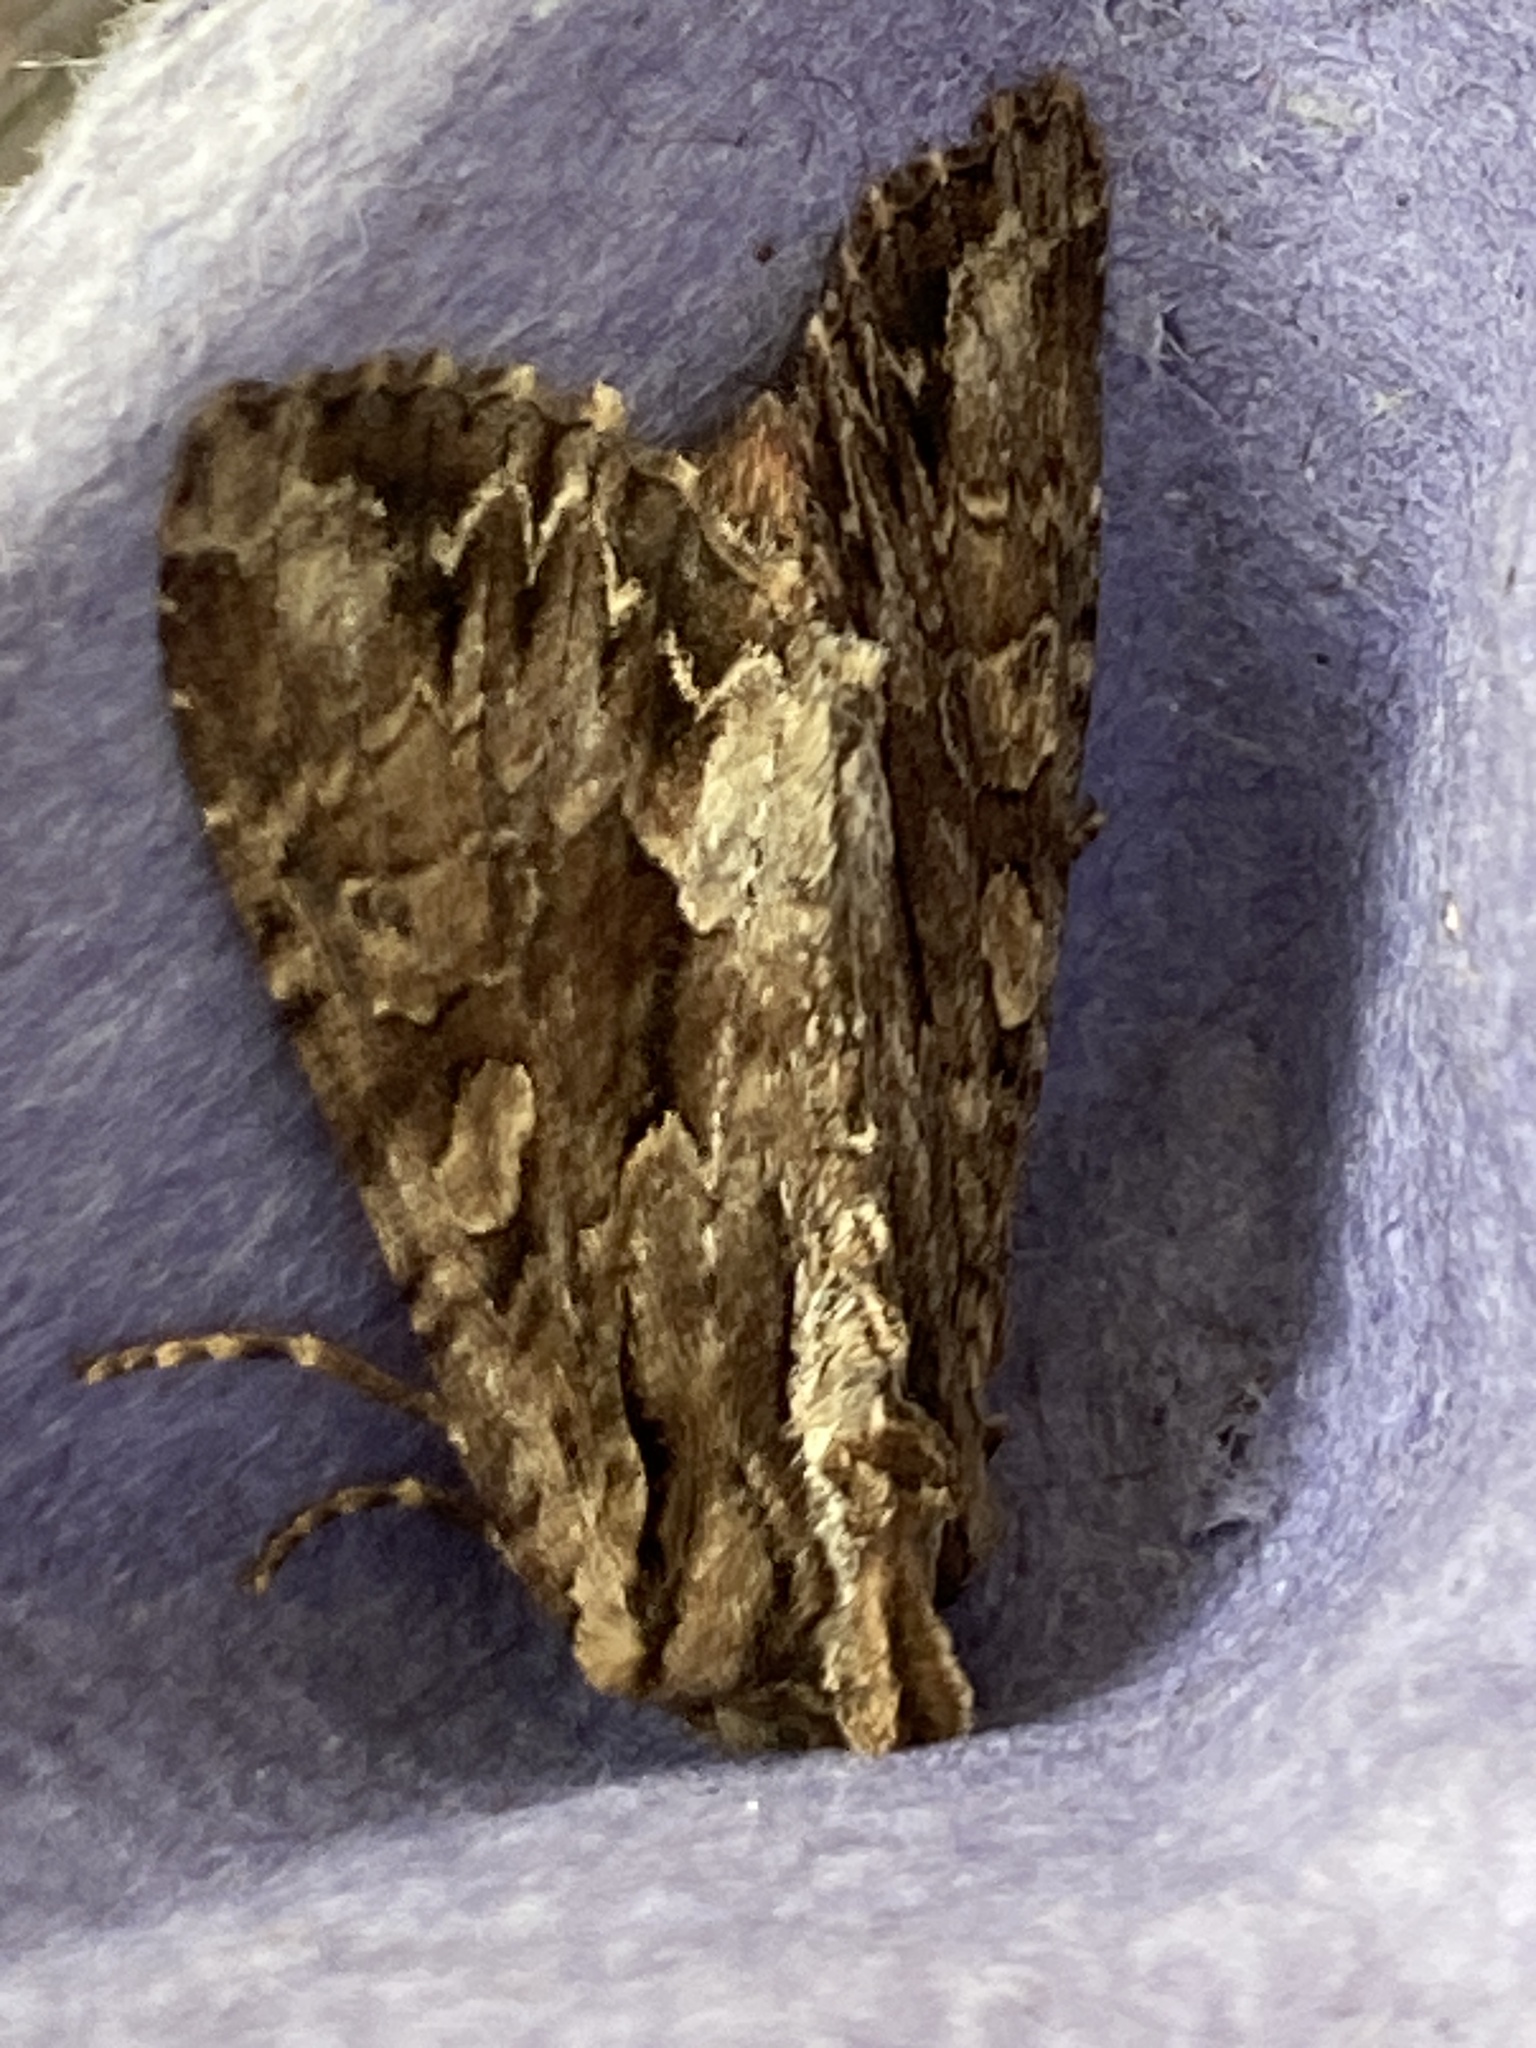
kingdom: Animalia
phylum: Arthropoda
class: Insecta
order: Lepidoptera
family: Noctuidae
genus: Apamea
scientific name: Apamea monoglypha
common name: Dark arches
